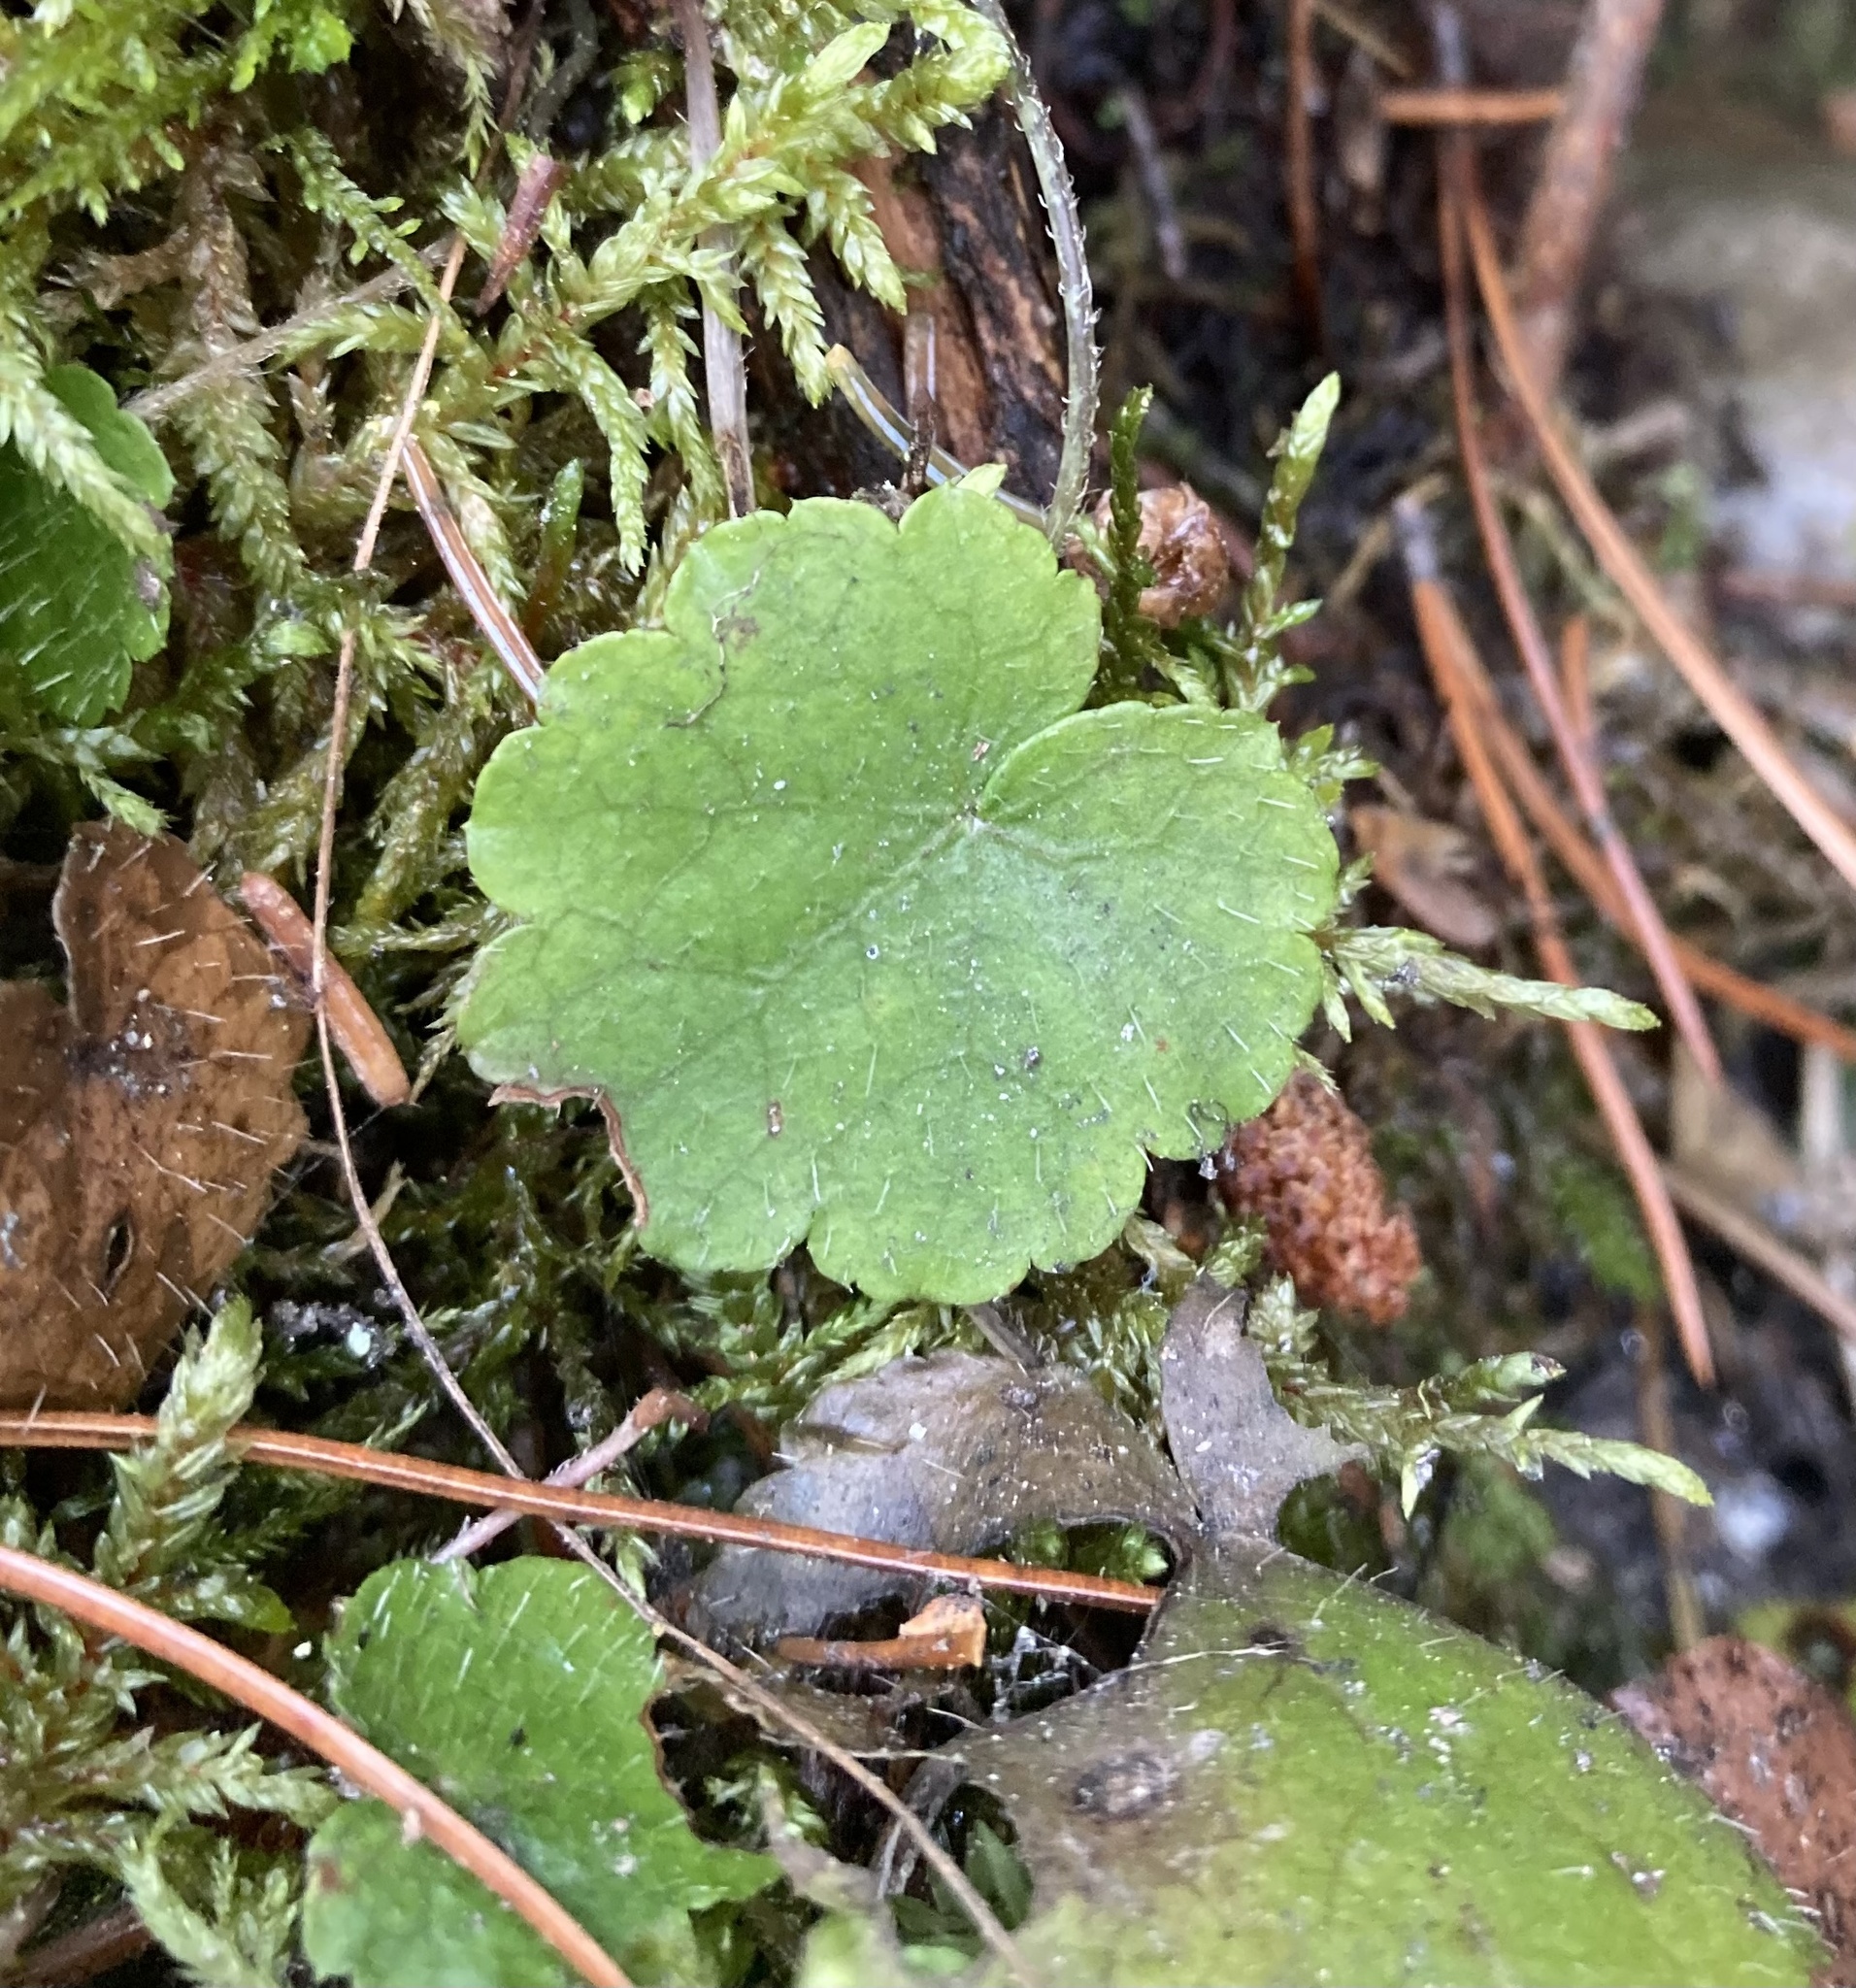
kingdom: Plantae
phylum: Tracheophyta
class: Magnoliopsida
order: Saxifragales
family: Saxifragaceae
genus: Mitella
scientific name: Mitella nuda
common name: Bare-stemmed bishop's-cap
